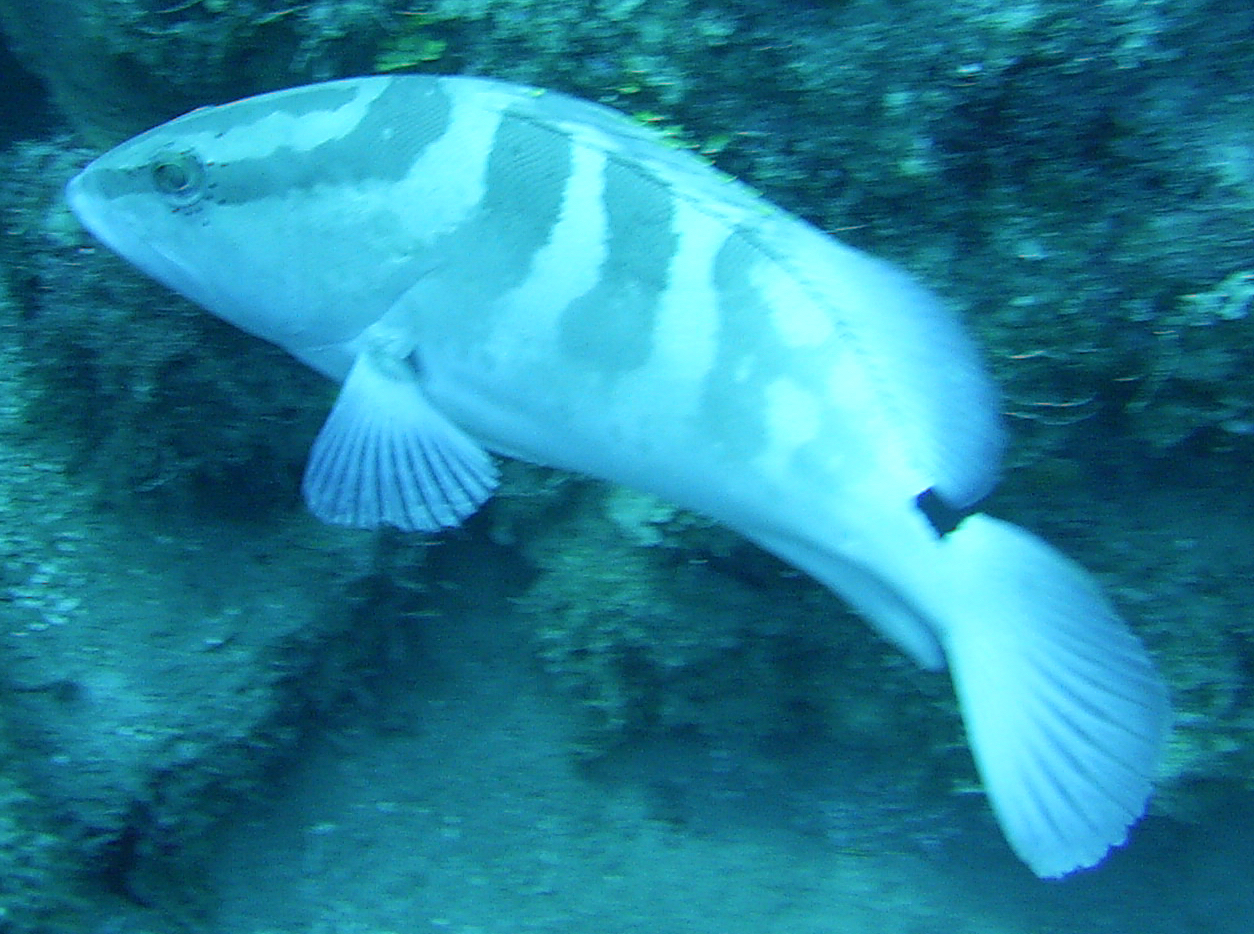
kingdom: Animalia
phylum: Chordata
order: Perciformes
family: Serranidae
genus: Epinephelus
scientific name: Epinephelus striatus
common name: Nassau grouper
